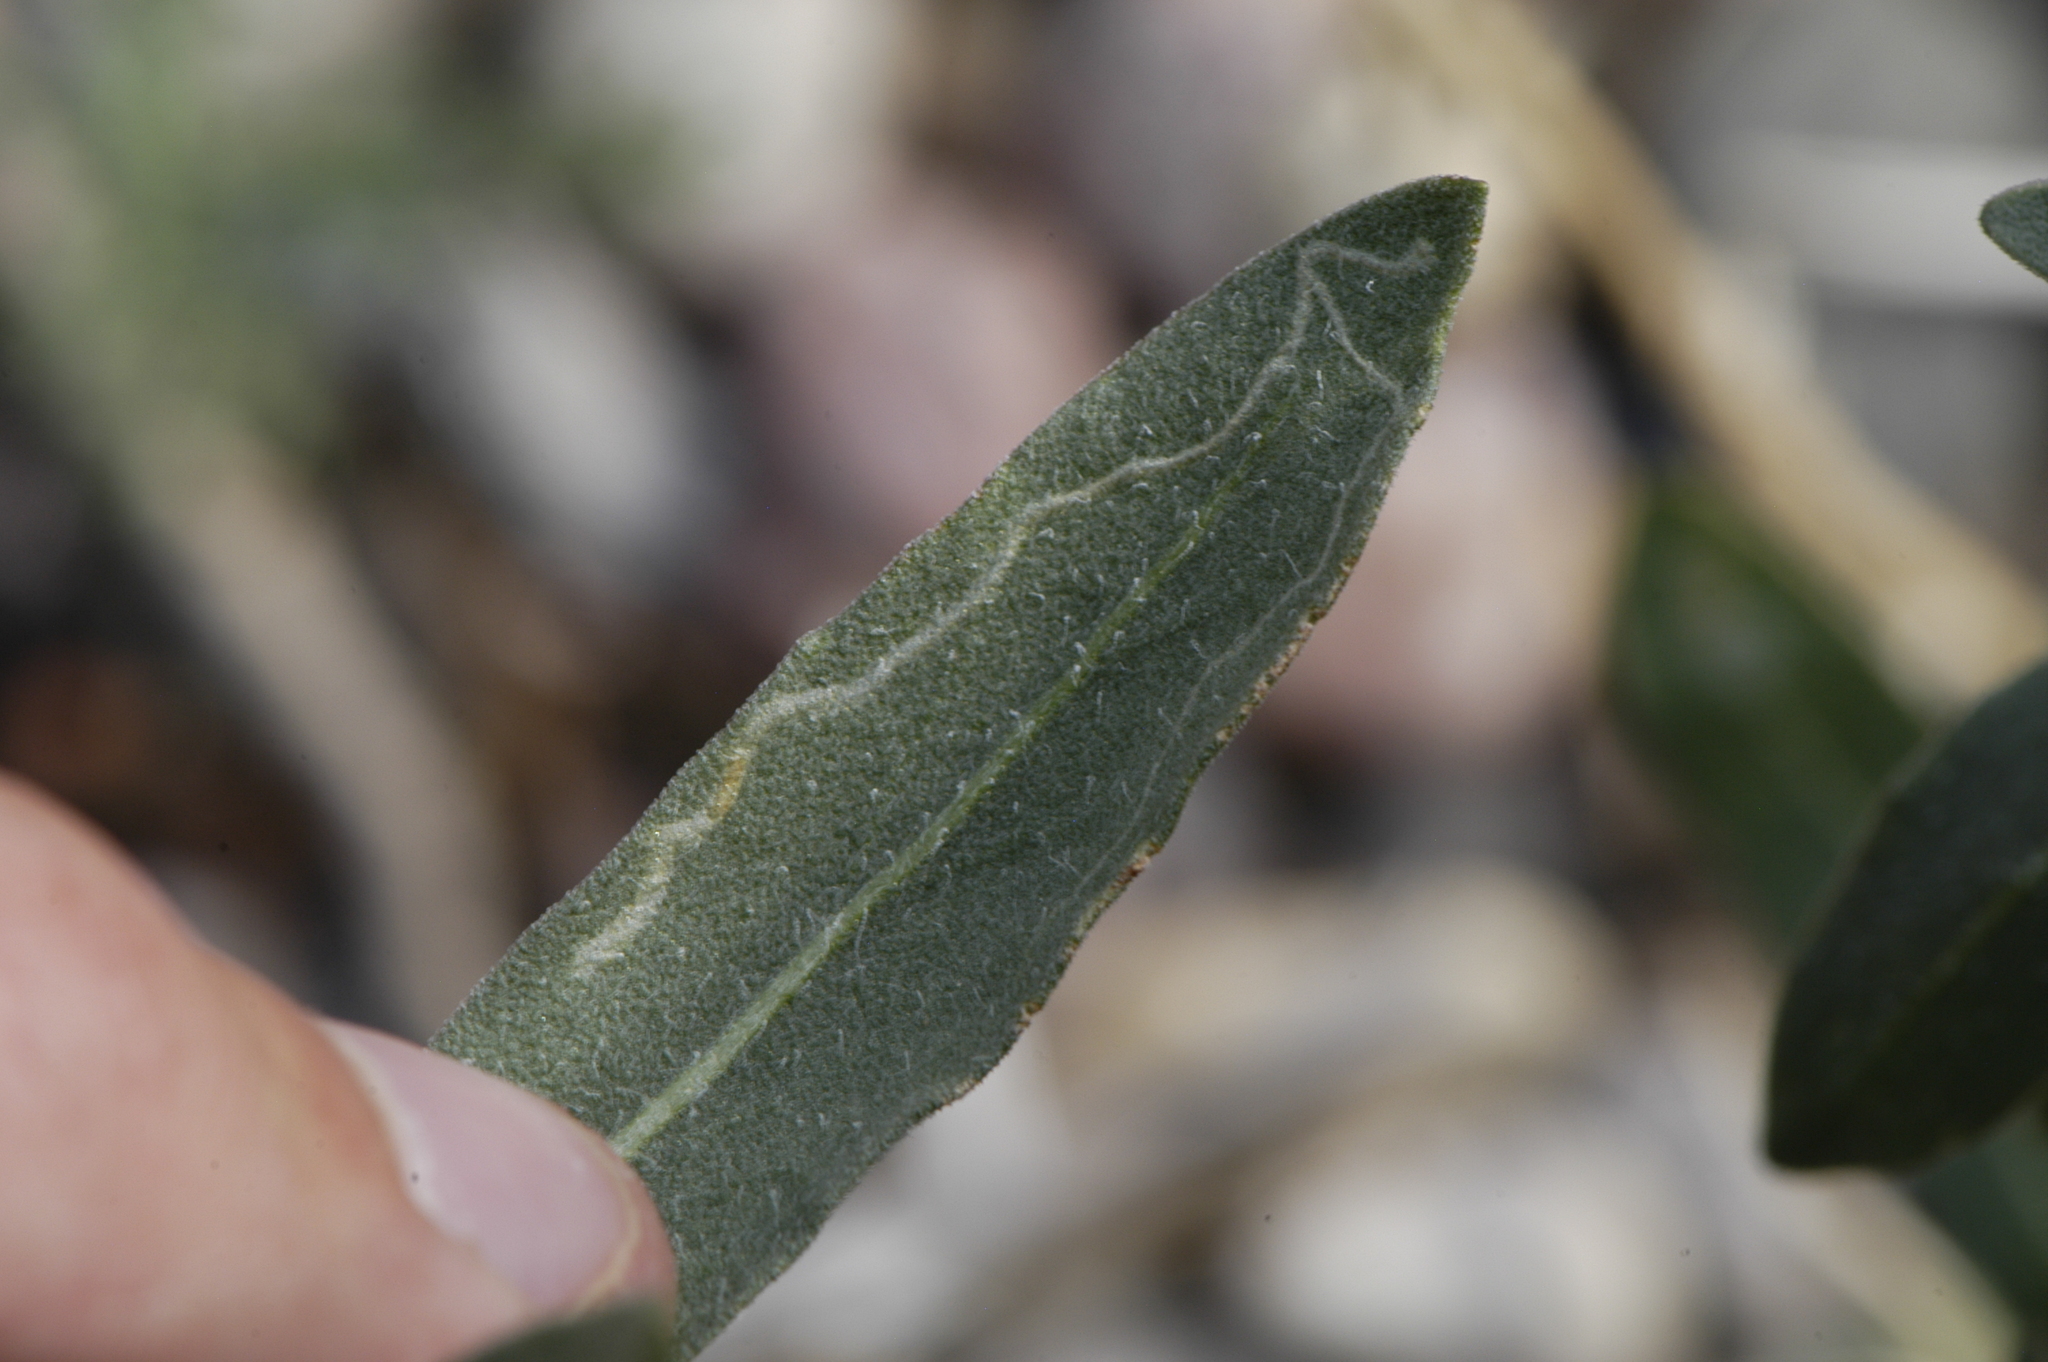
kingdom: Animalia
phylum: Arthropoda
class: Insecta
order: Diptera
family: Agromyzidae
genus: Liriomyza
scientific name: Liriomyza
